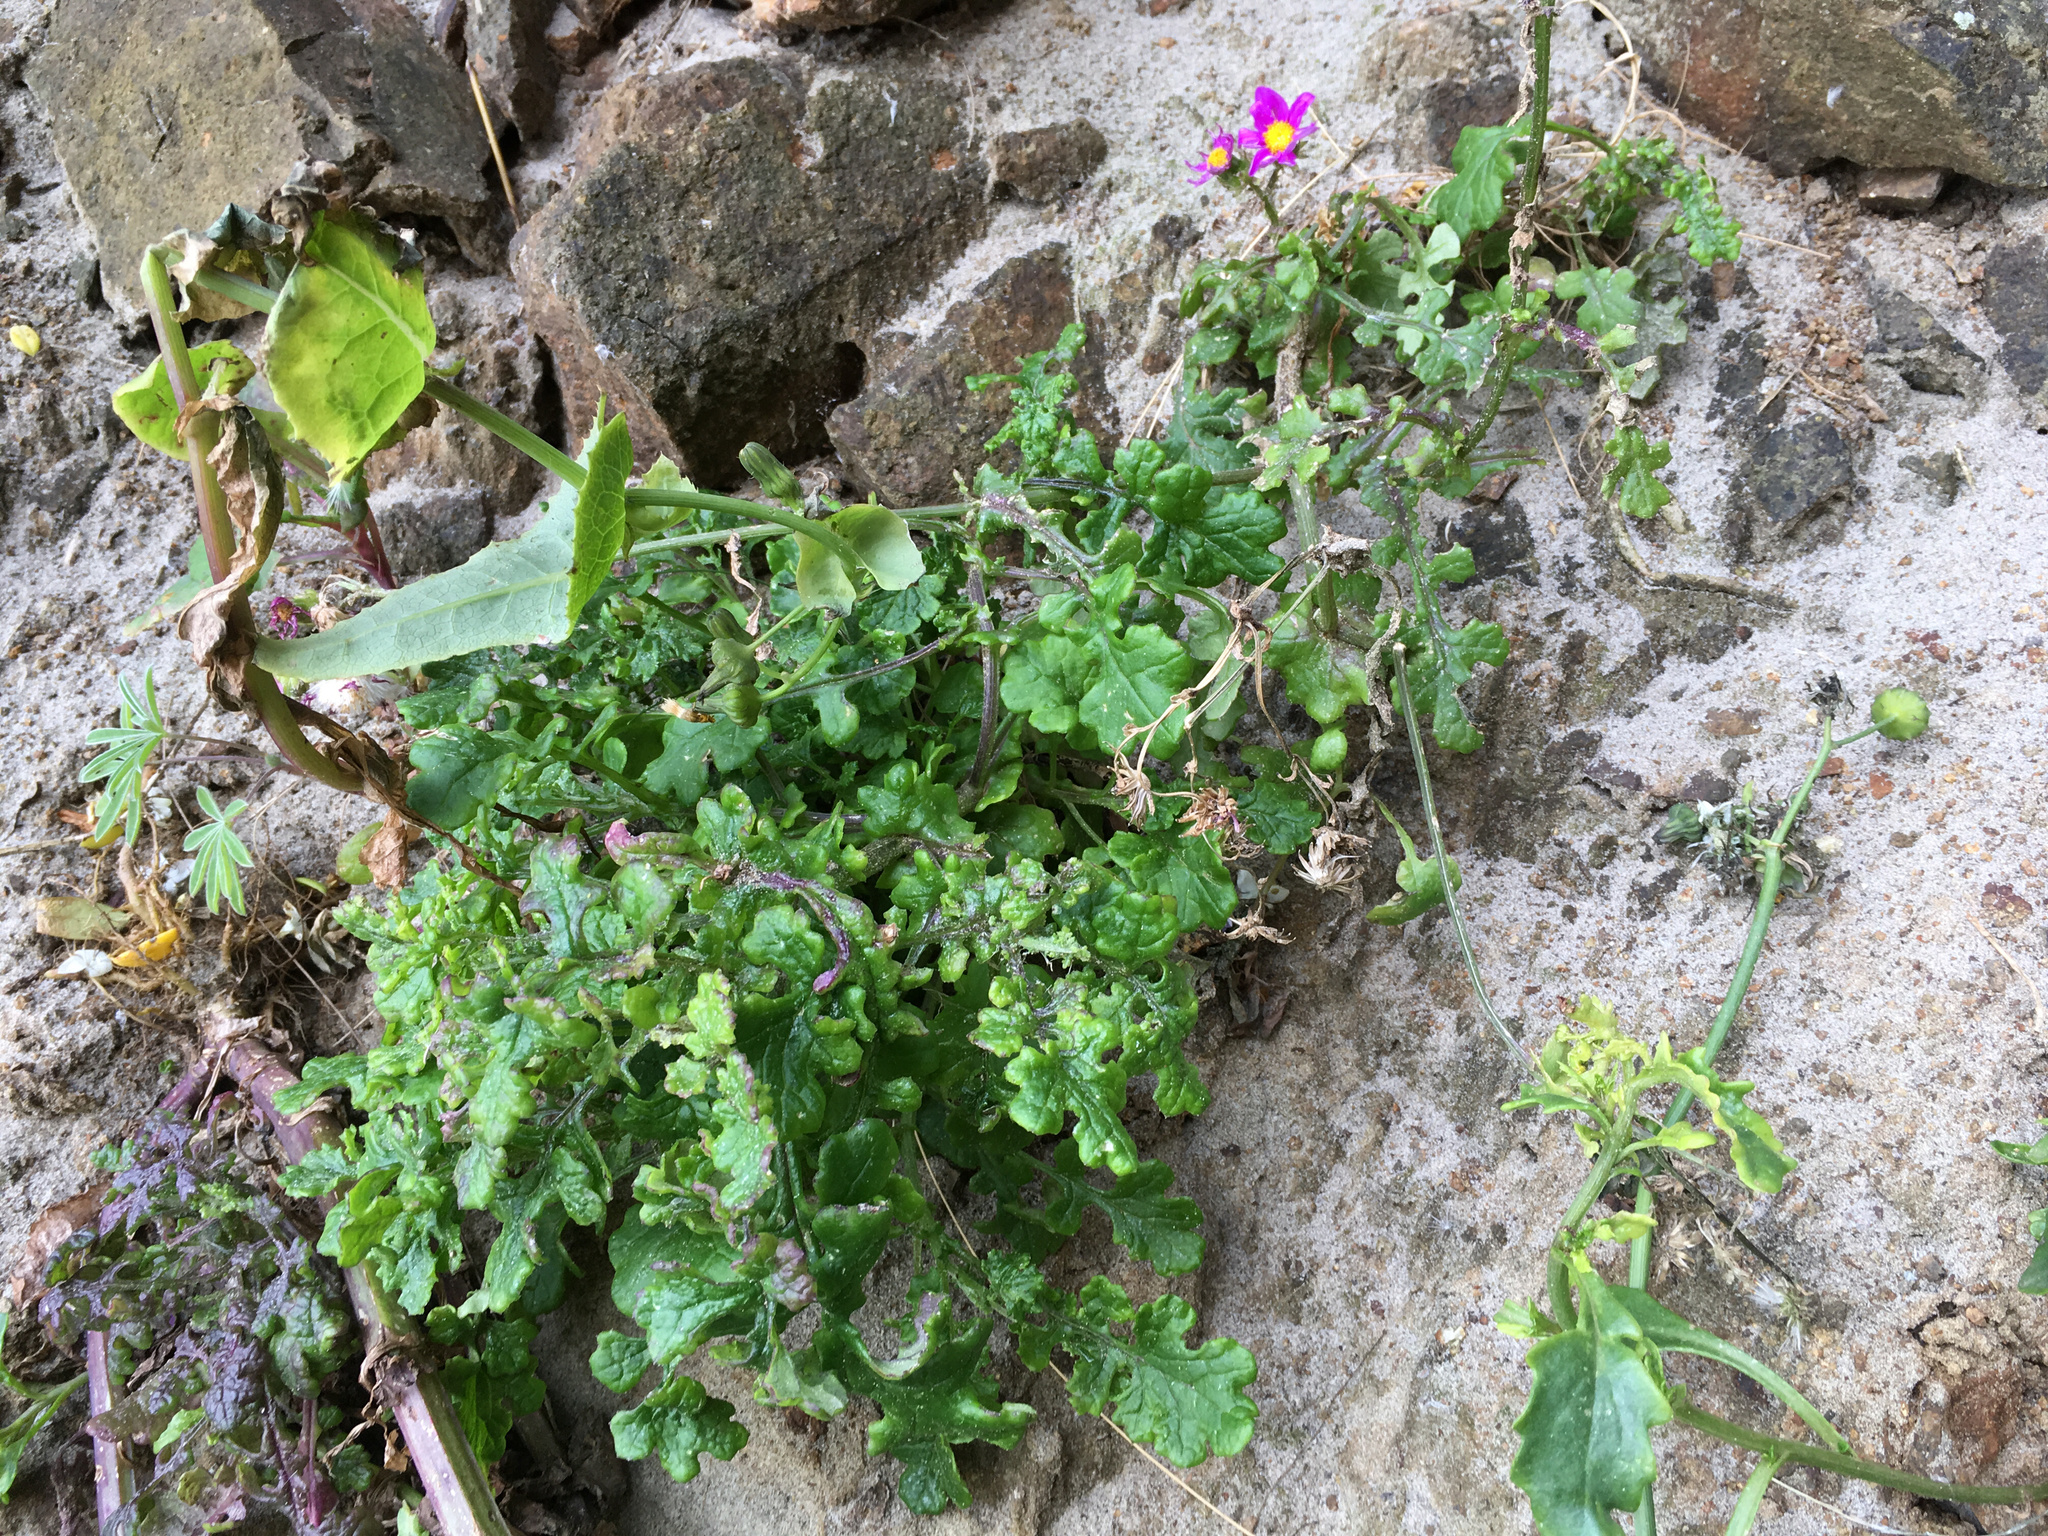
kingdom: Plantae
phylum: Tracheophyta
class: Magnoliopsida
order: Asterales
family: Asteraceae
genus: Senecio
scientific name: Senecio elegans
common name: Purple groundsel
